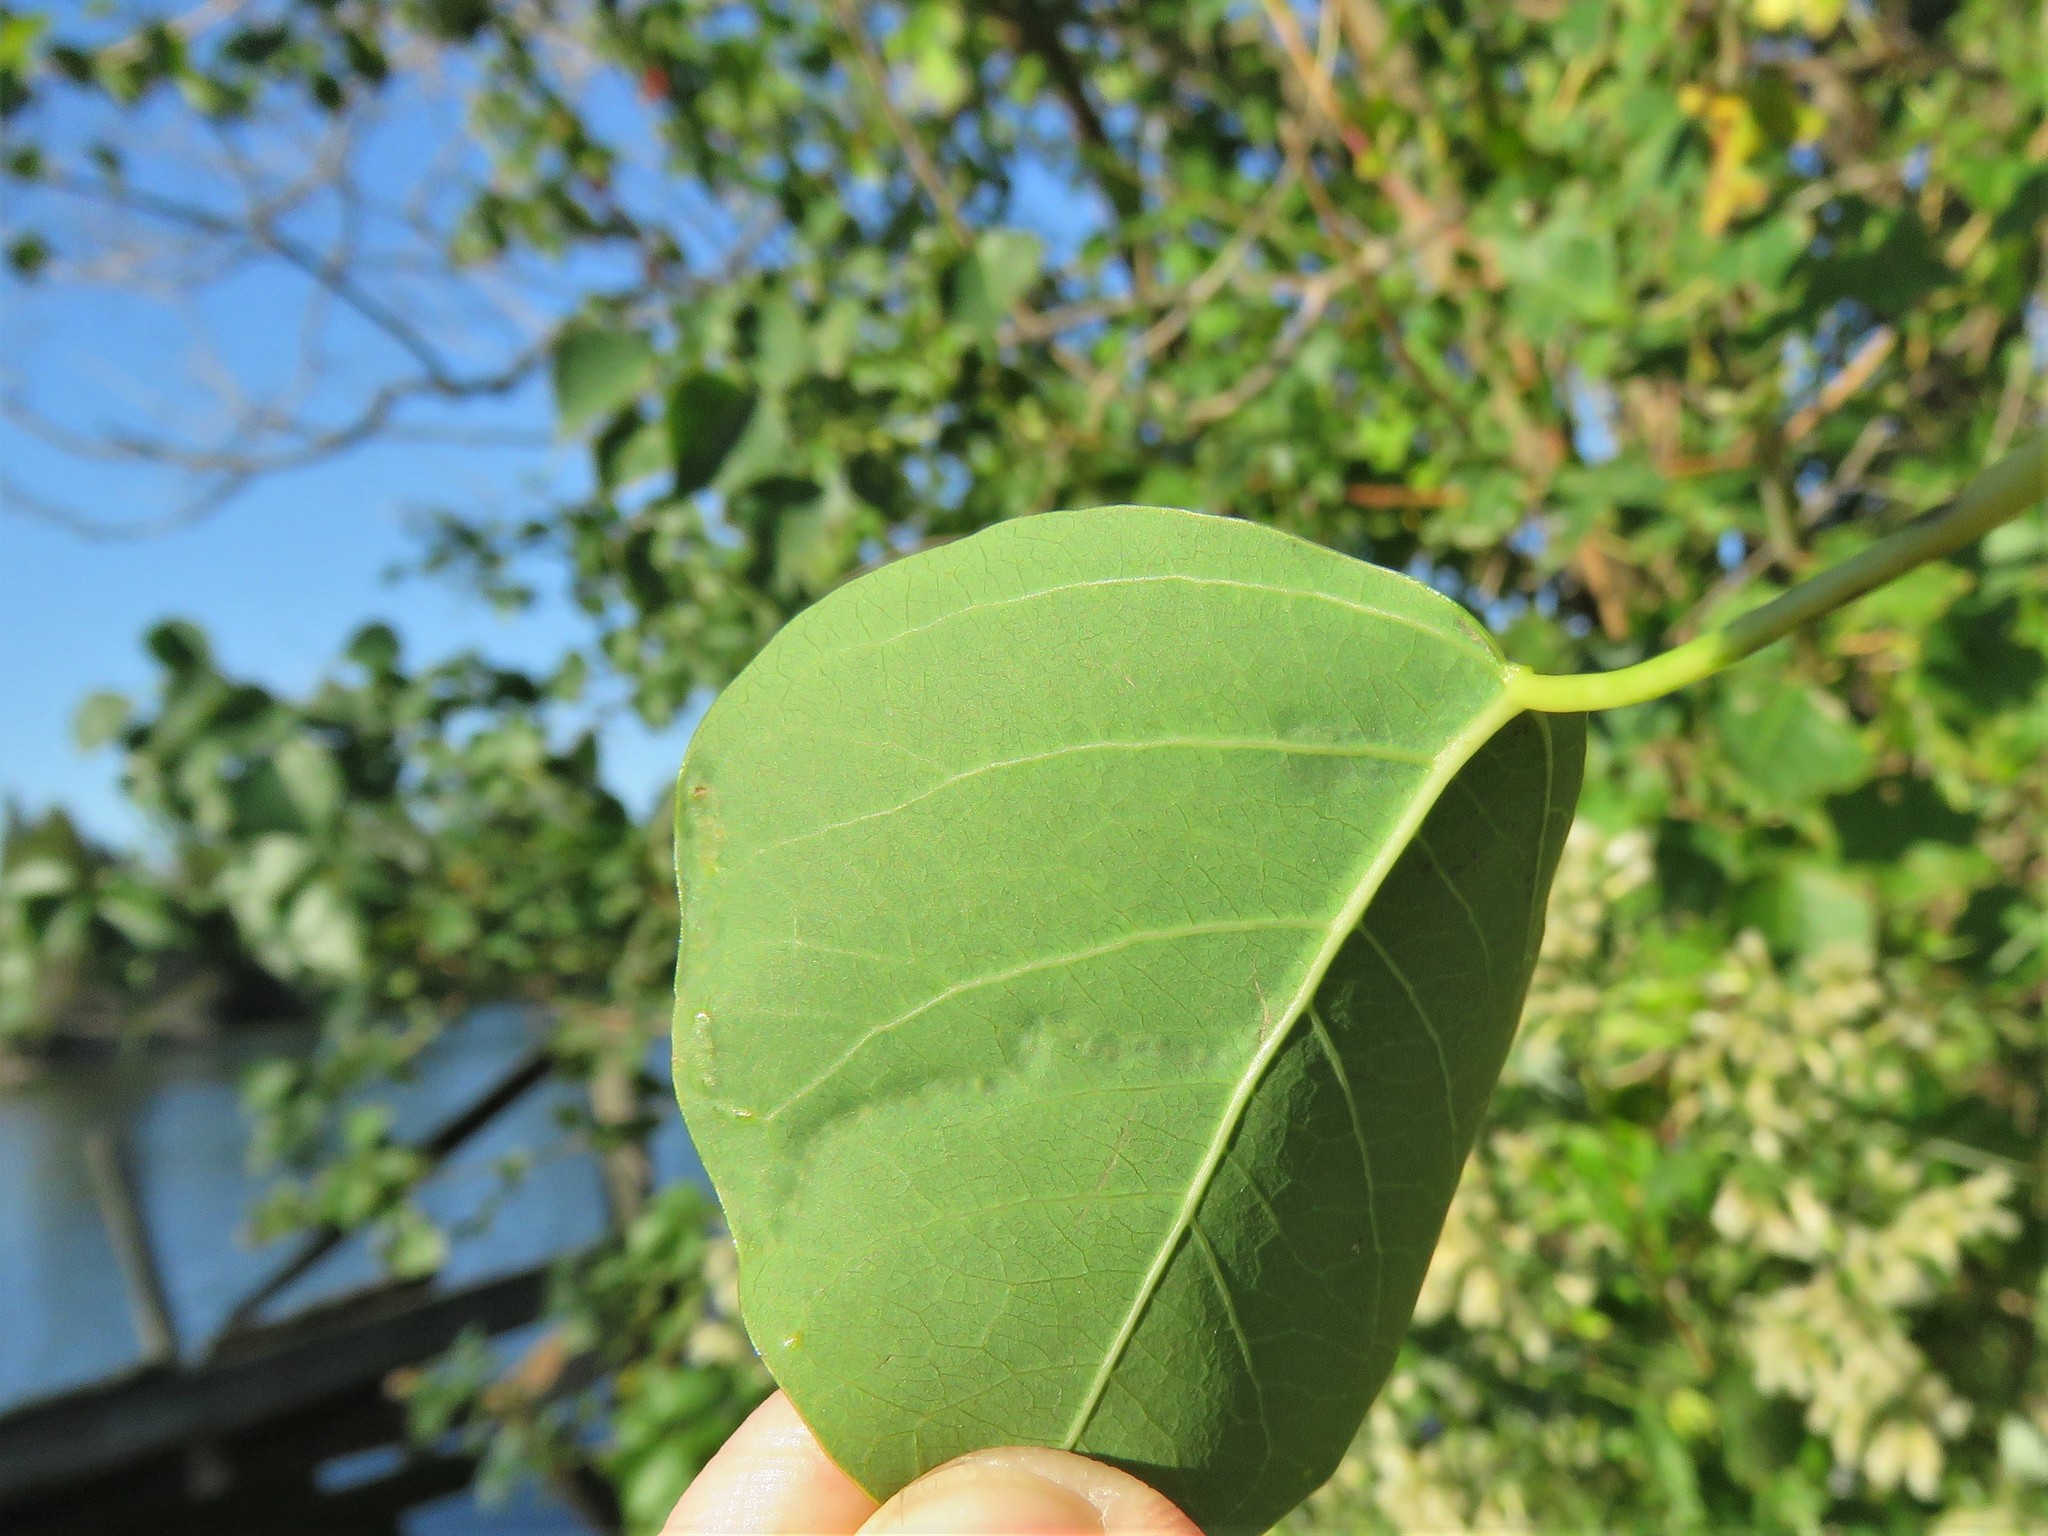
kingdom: Animalia
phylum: Arthropoda
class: Insecta
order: Lepidoptera
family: Gracillariidae
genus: Caloptilia
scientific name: Caloptilia triadicae
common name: Tallow leaf roller
